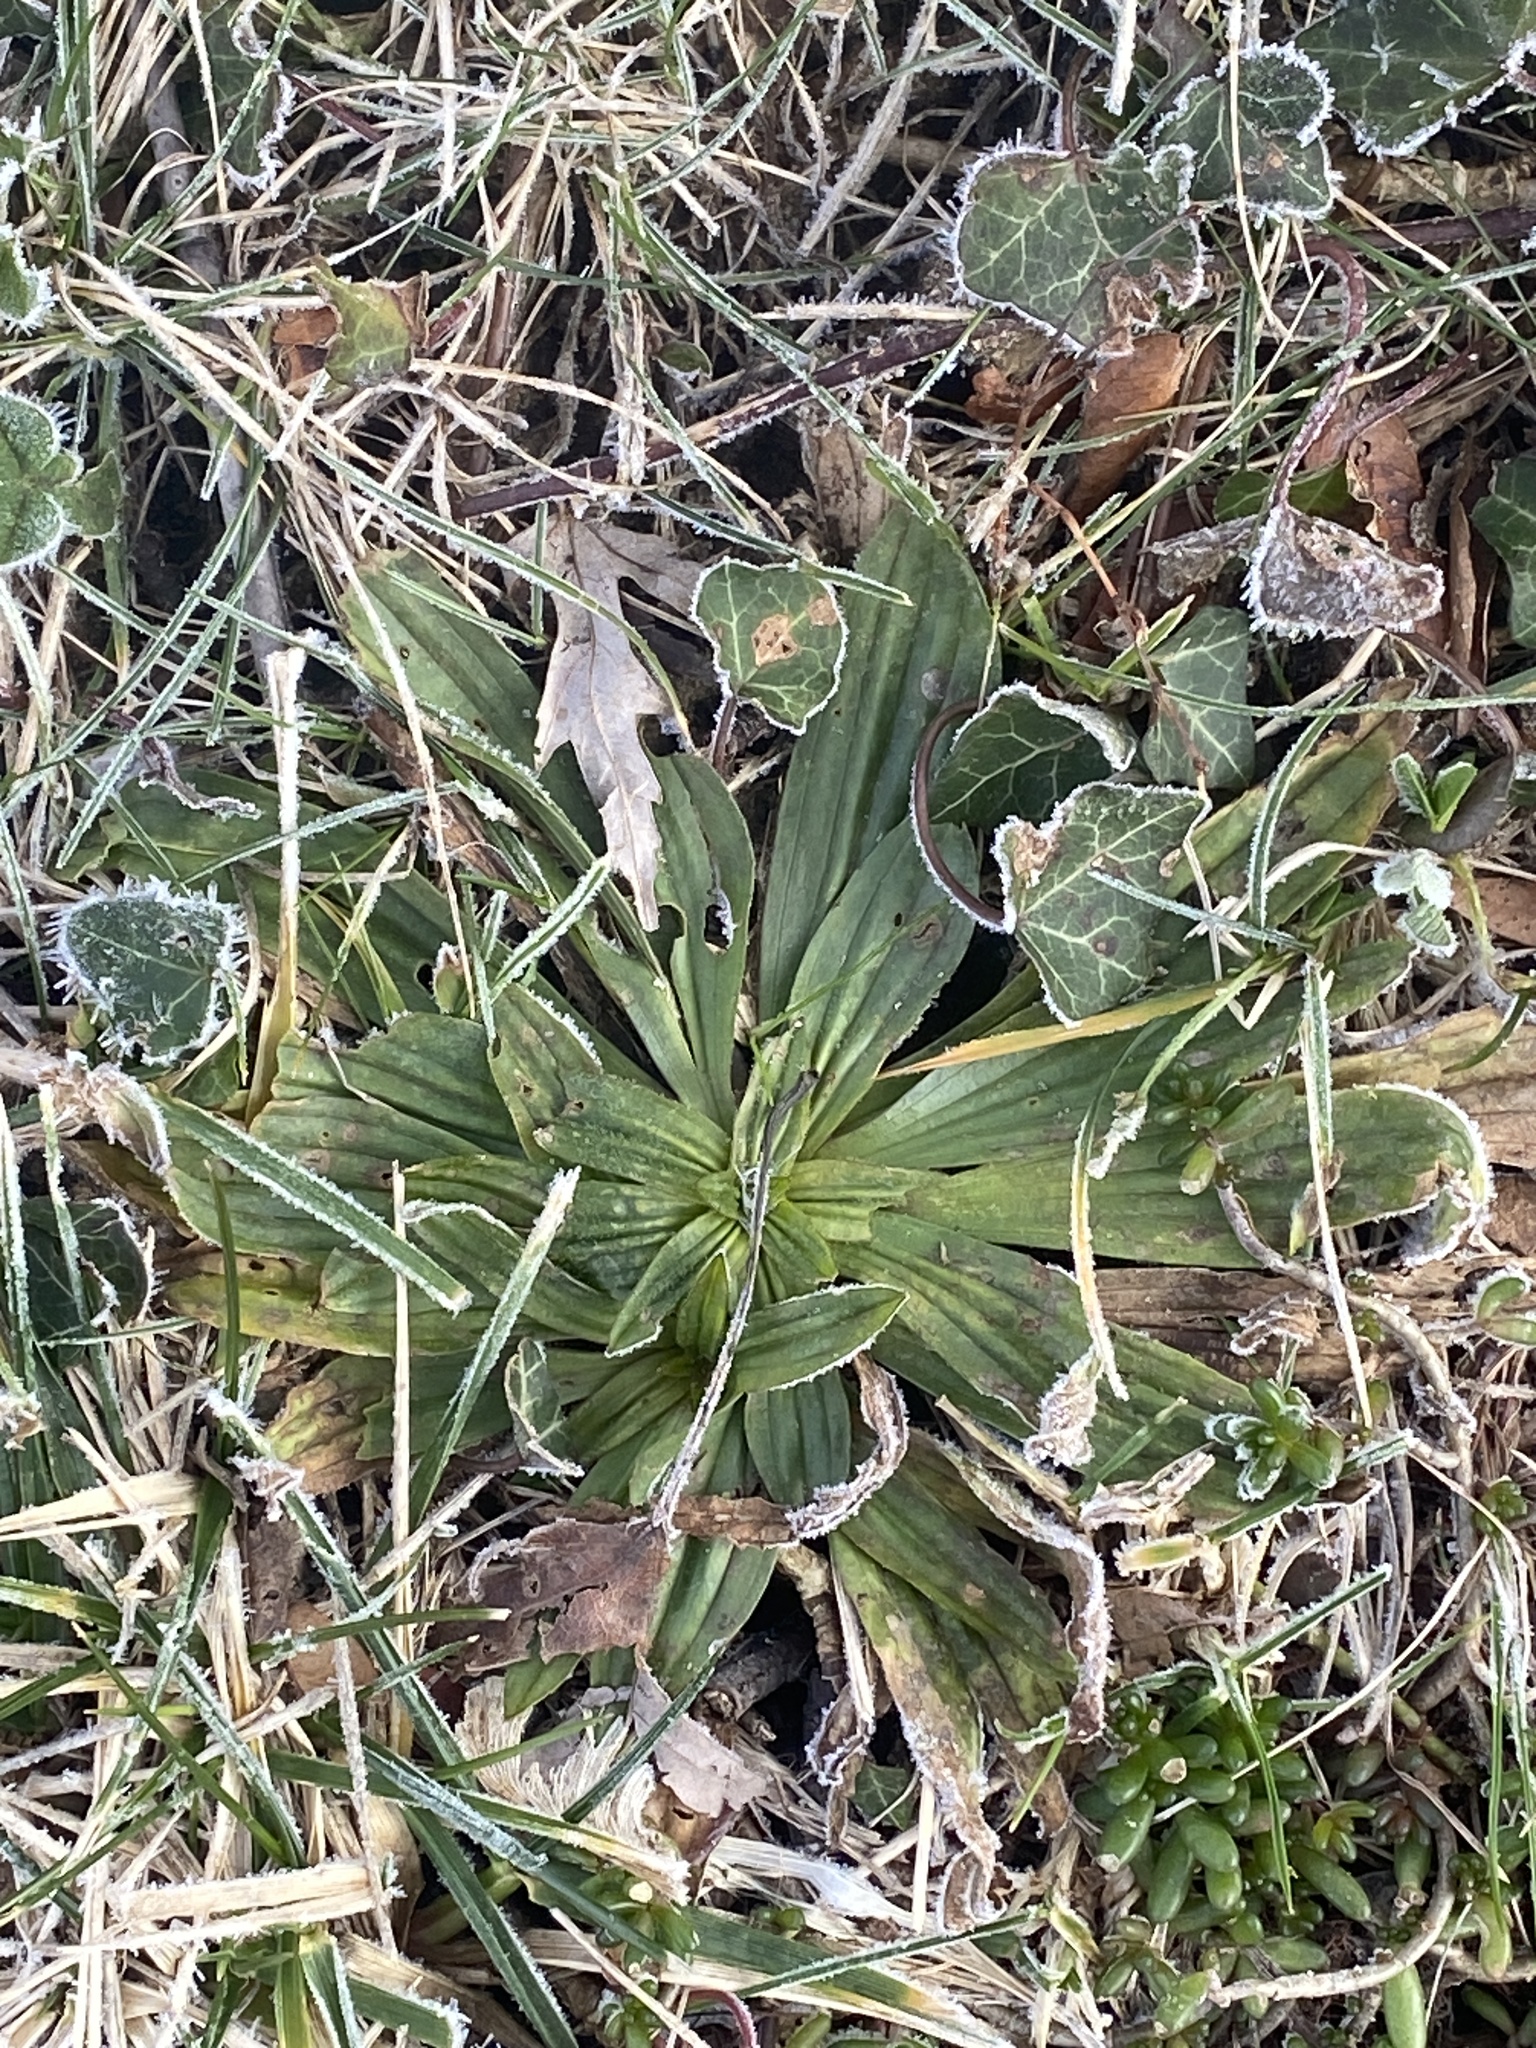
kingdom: Plantae
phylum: Tracheophyta
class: Magnoliopsida
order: Lamiales
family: Plantaginaceae
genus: Plantago
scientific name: Plantago lanceolata
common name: Ribwort plantain
